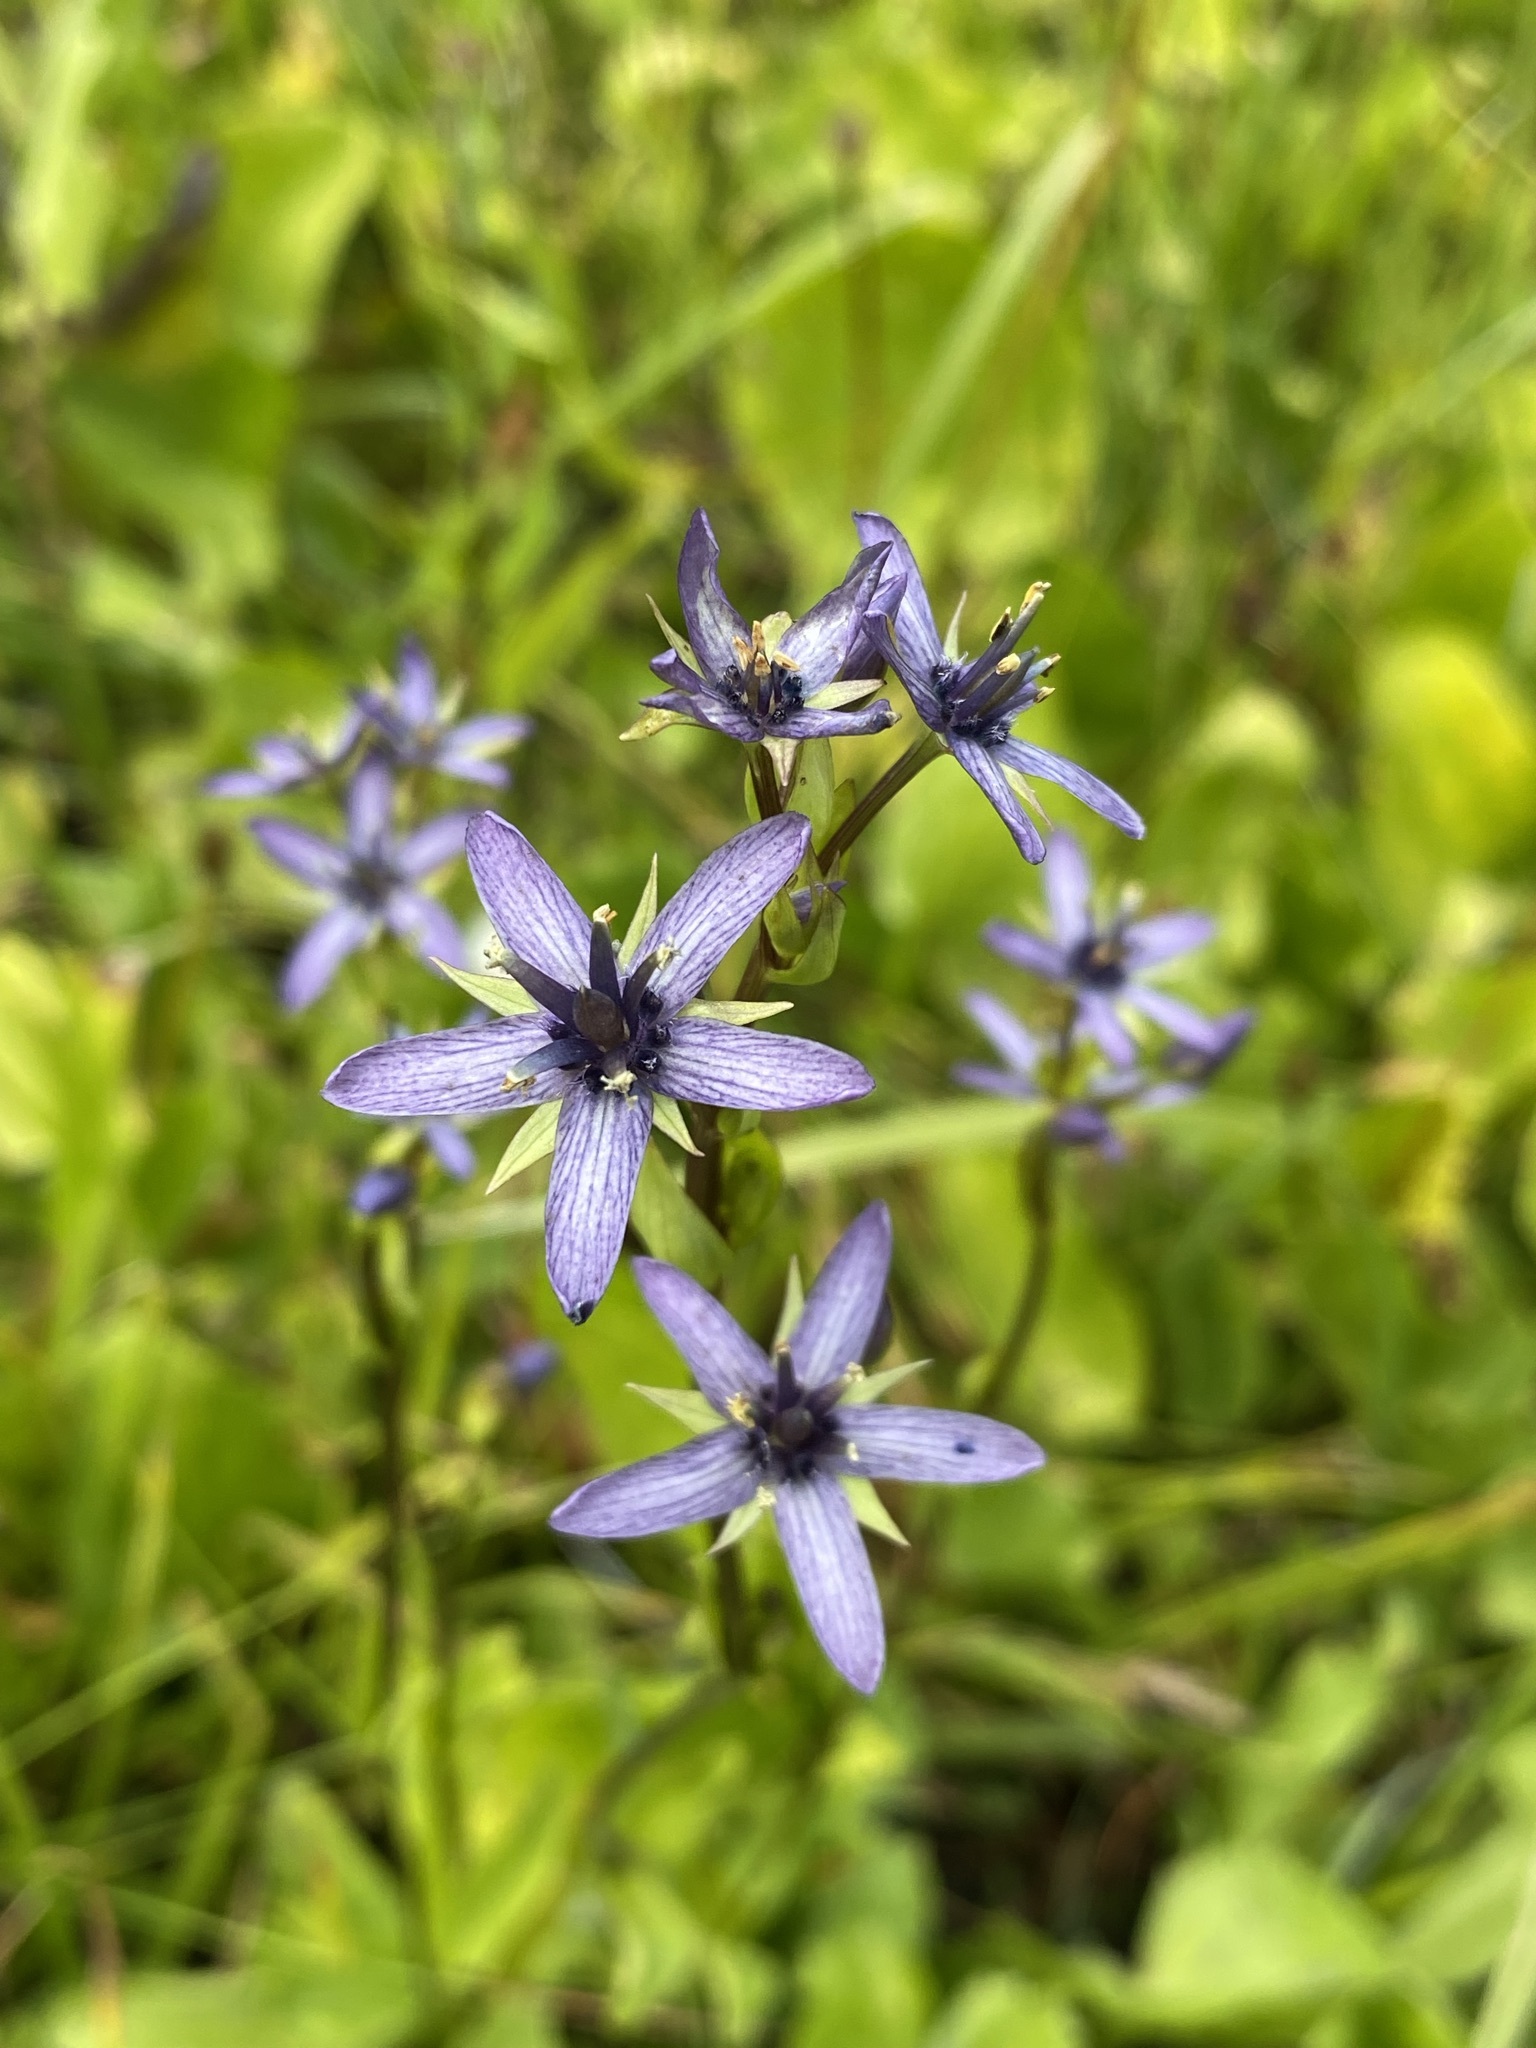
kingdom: Plantae
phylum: Tracheophyta
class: Magnoliopsida
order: Gentianales
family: Gentianaceae
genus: Swertia
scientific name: Swertia perennis
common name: Alpine bog swertia
